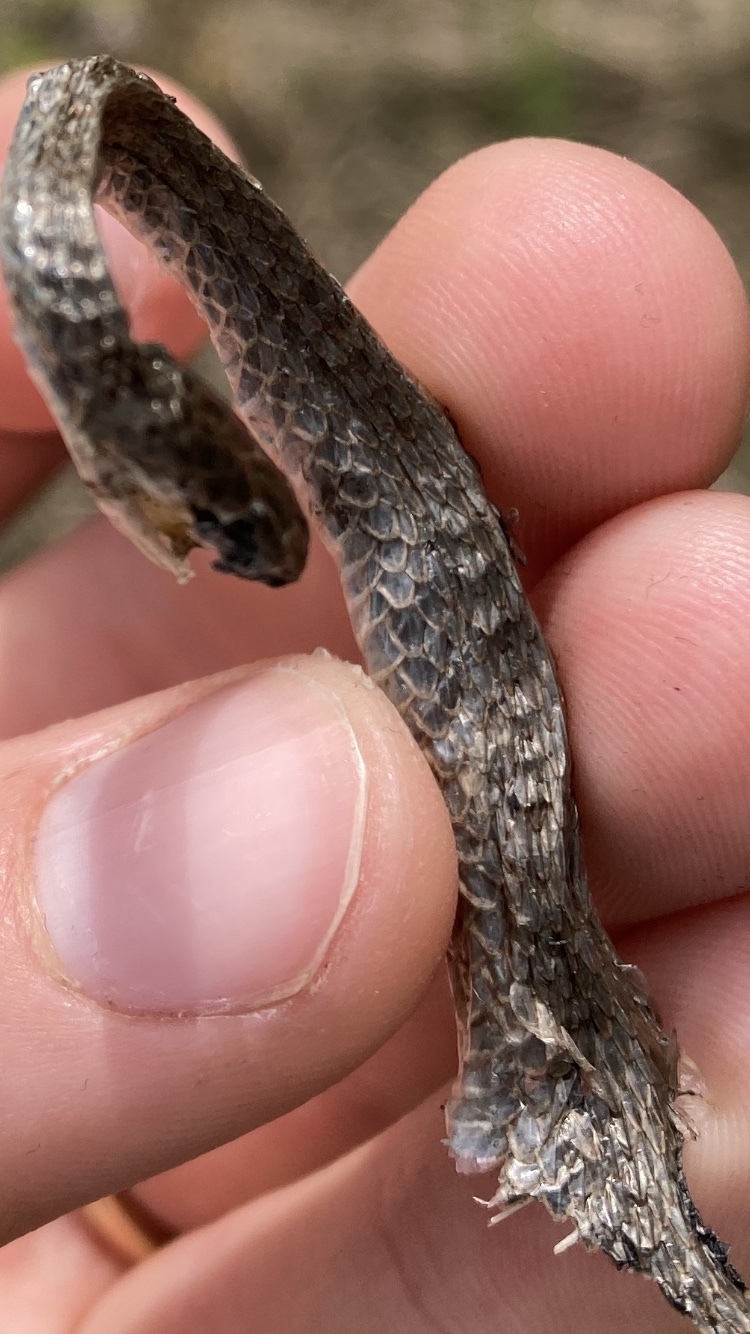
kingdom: Animalia
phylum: Chordata
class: Squamata
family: Colubridae
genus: Storeria
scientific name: Storeria dekayi
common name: (dekay’s) brown snake
